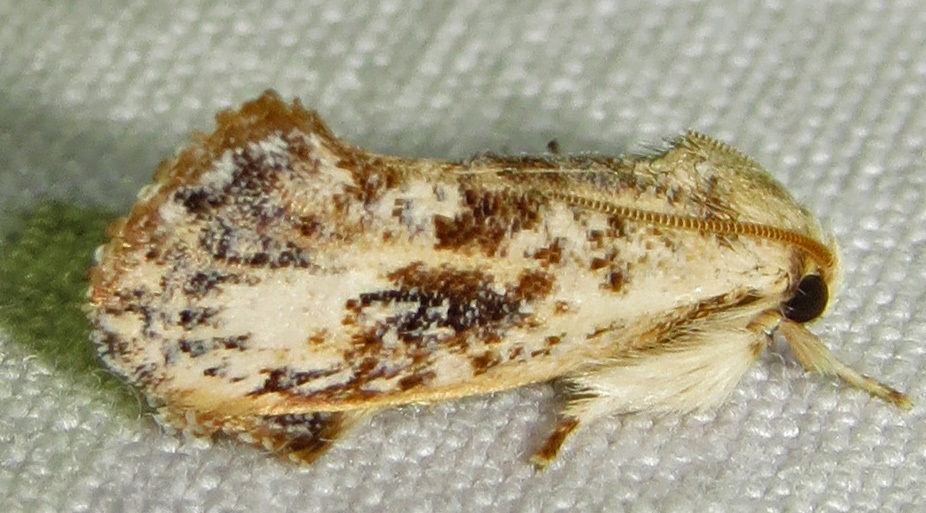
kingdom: Animalia
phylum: Arthropoda
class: Insecta
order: Lepidoptera
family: Tineidae
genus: Acrolophus
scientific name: Acrolophus mycetophagus
